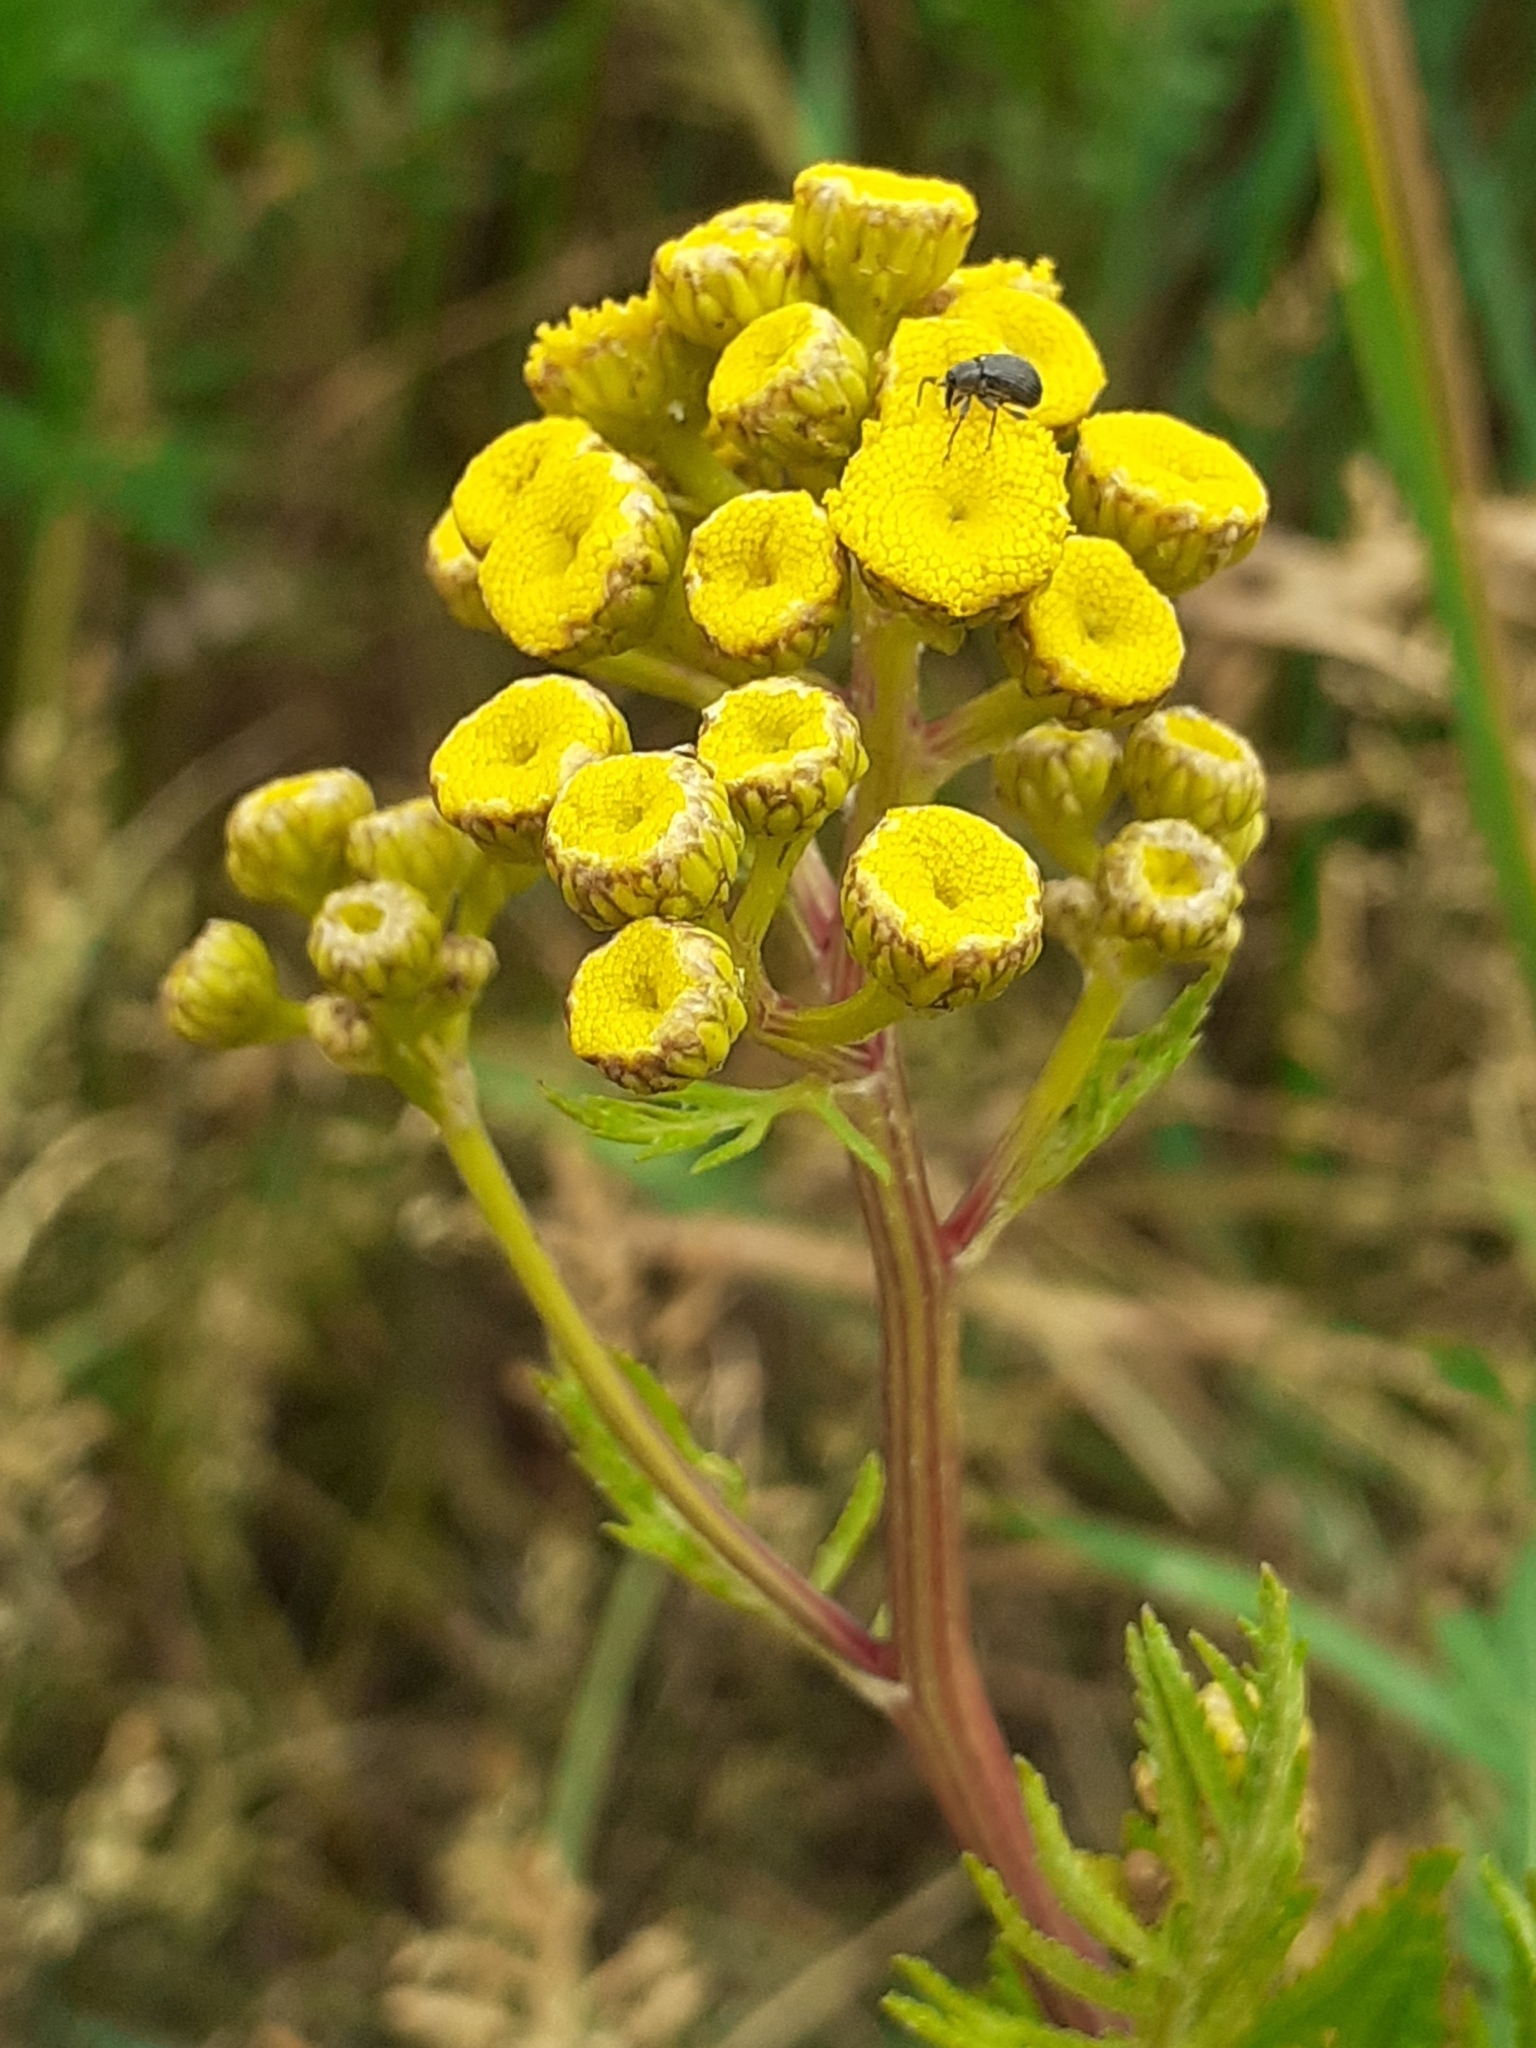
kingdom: Plantae
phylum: Tracheophyta
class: Magnoliopsida
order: Asterales
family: Asteraceae
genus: Tanacetum
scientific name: Tanacetum vulgare
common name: Common tansy
